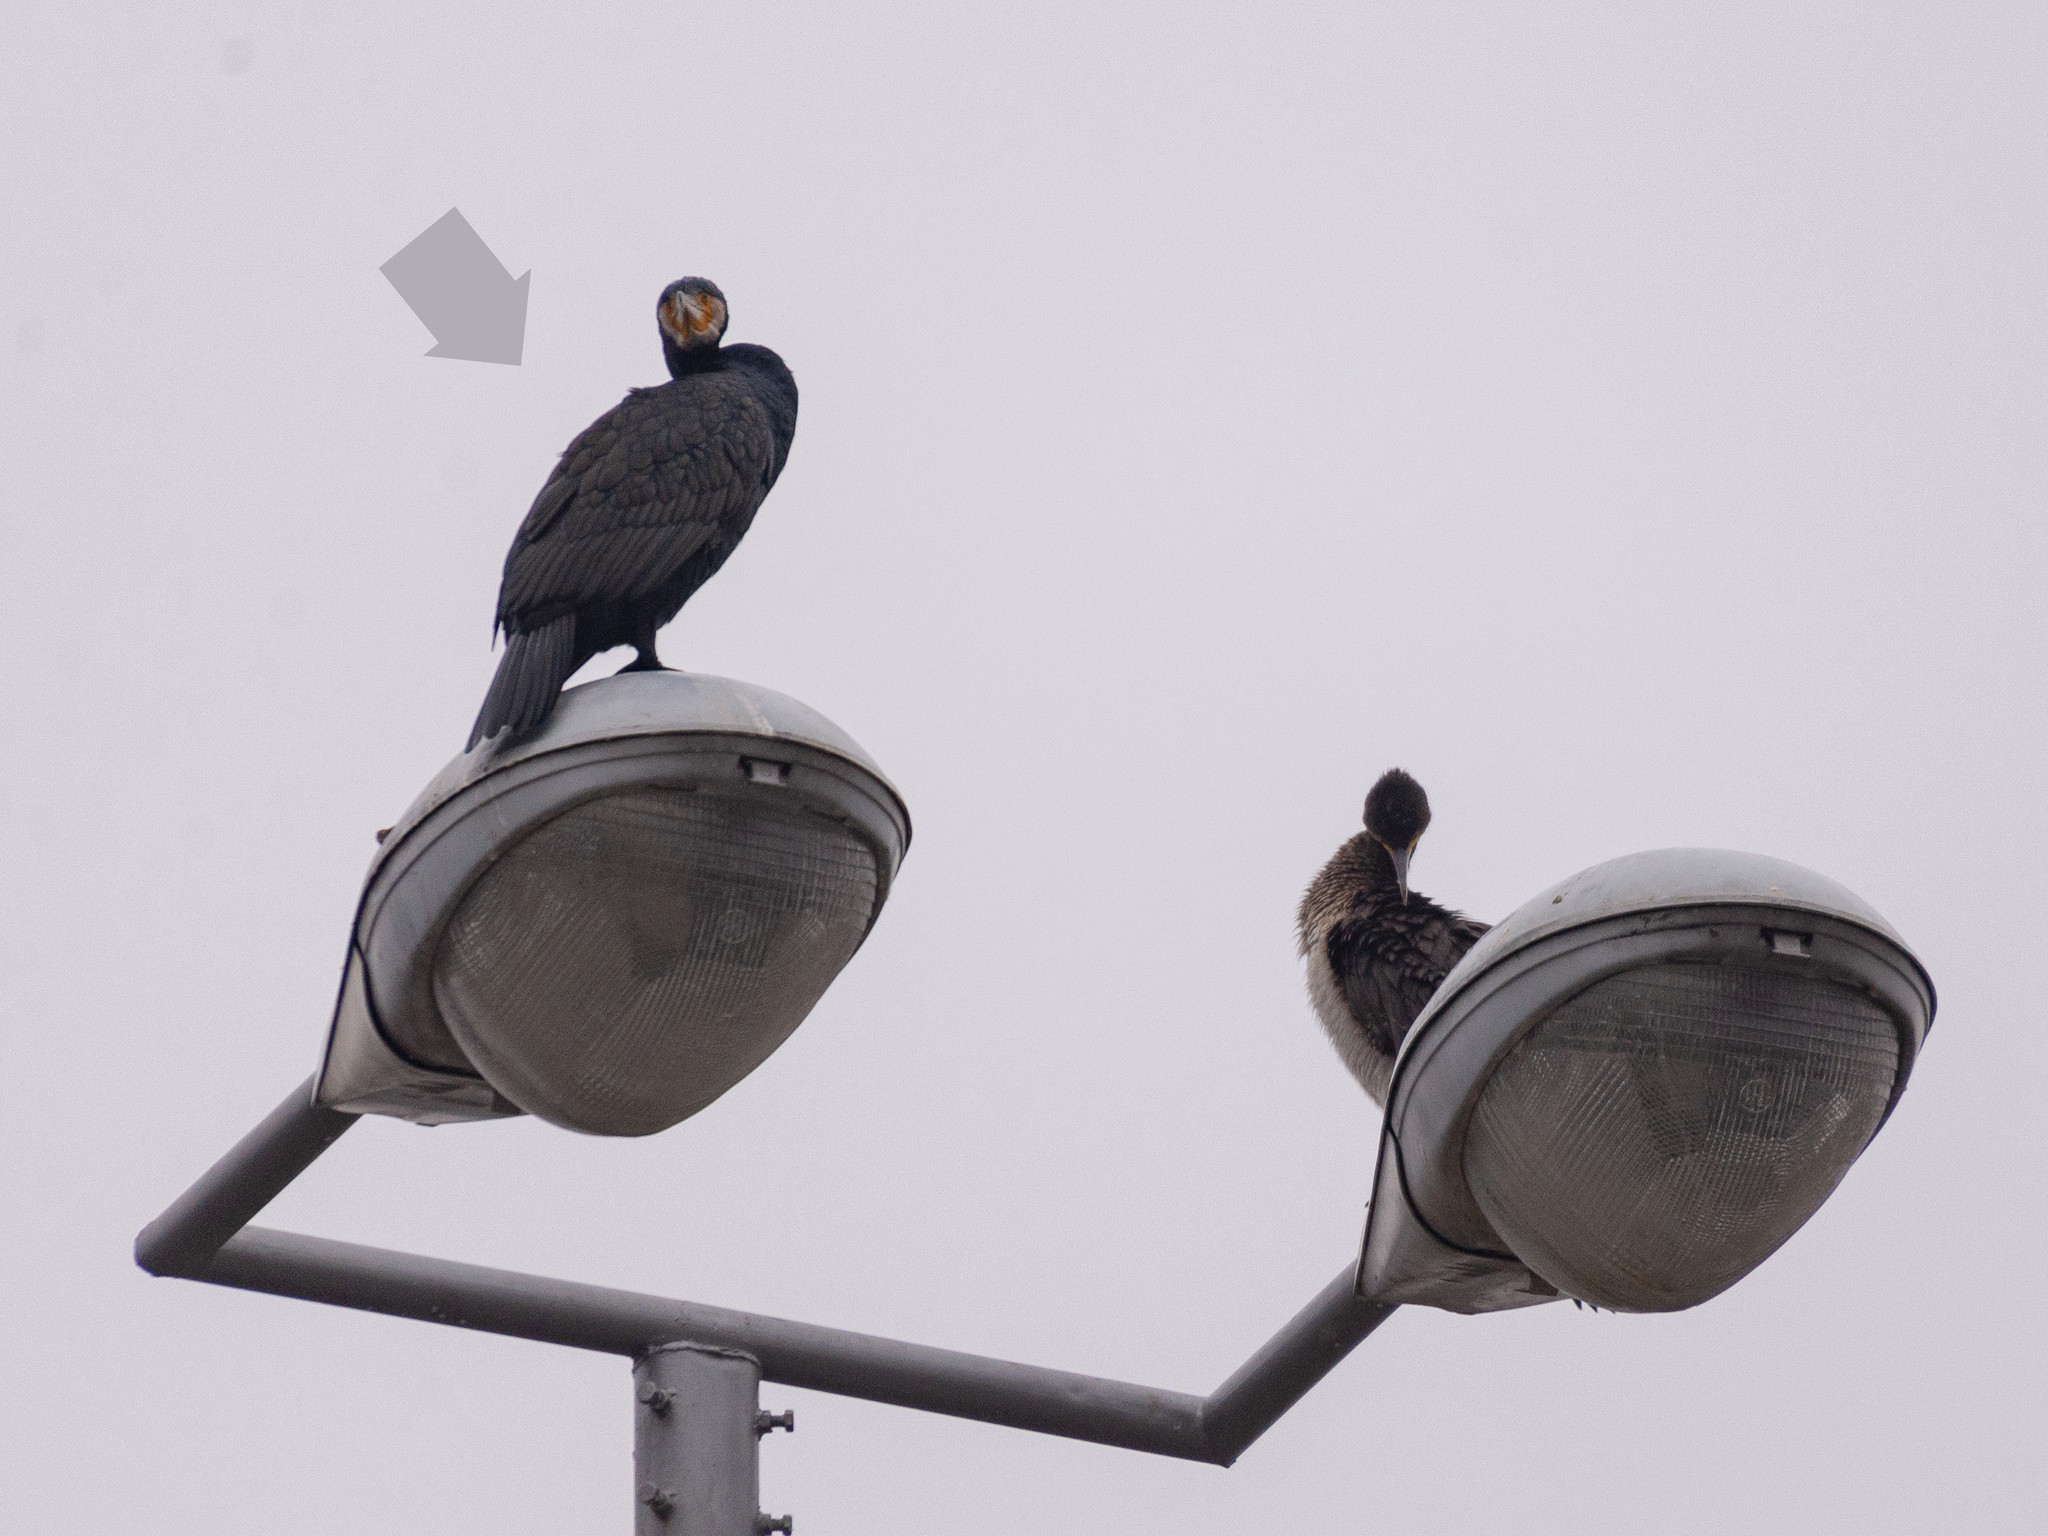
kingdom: Animalia
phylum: Chordata
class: Aves
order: Suliformes
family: Phalacrocoracidae
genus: Phalacrocorax
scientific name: Phalacrocorax carbo
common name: Great cormorant
